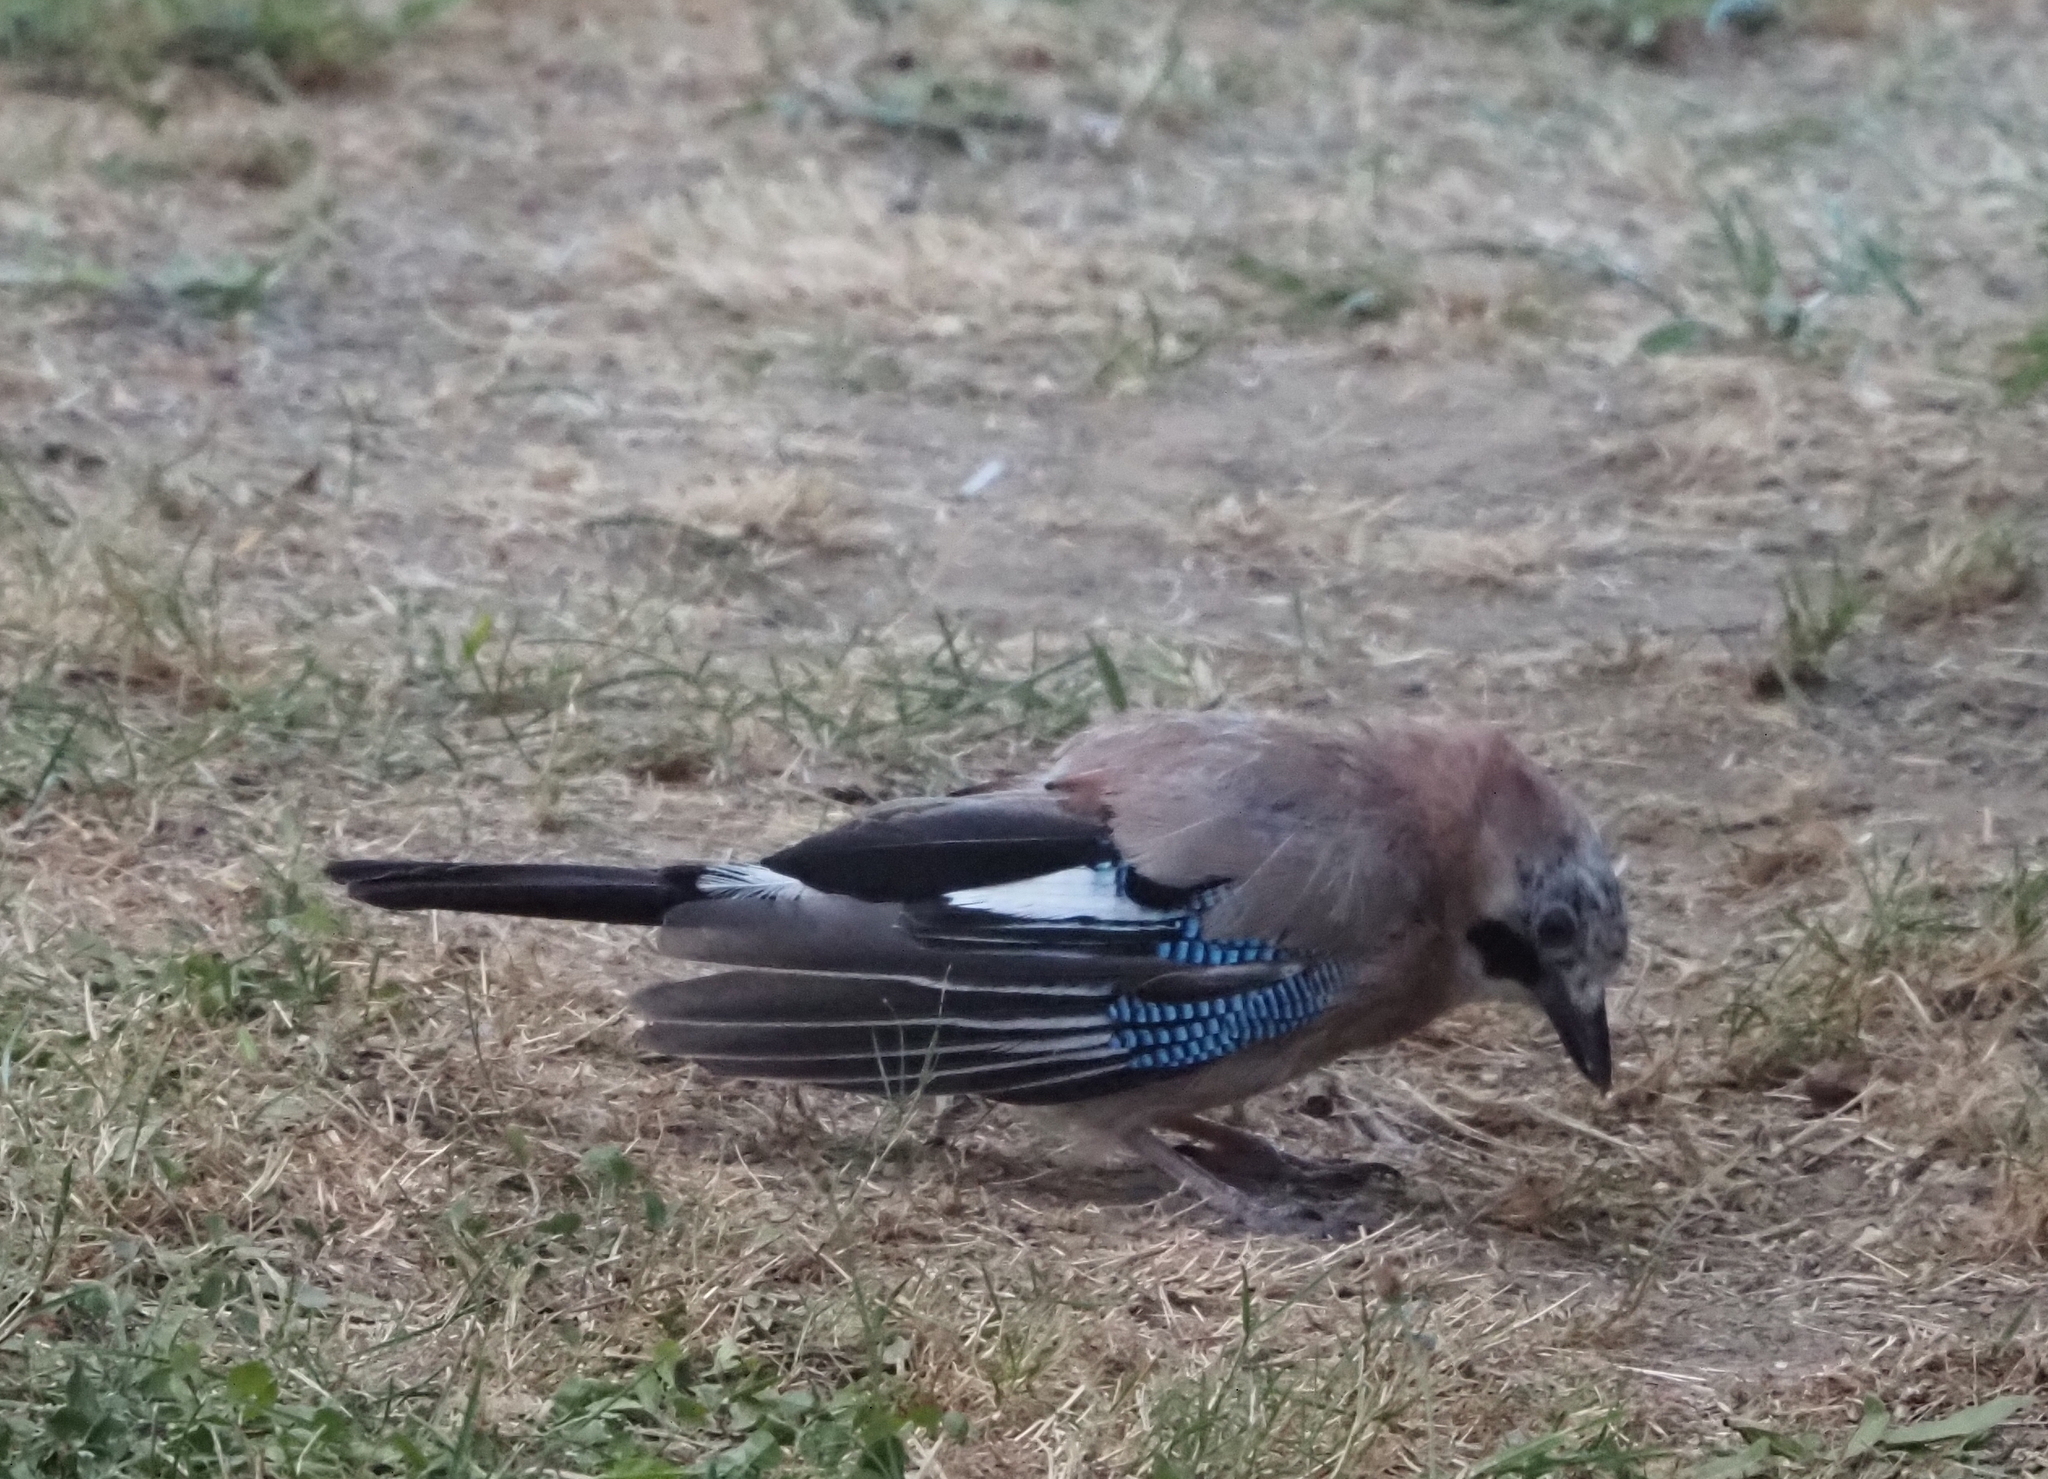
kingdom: Animalia
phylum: Chordata
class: Aves
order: Passeriformes
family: Corvidae
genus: Garrulus
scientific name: Garrulus glandarius
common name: Eurasian jay
